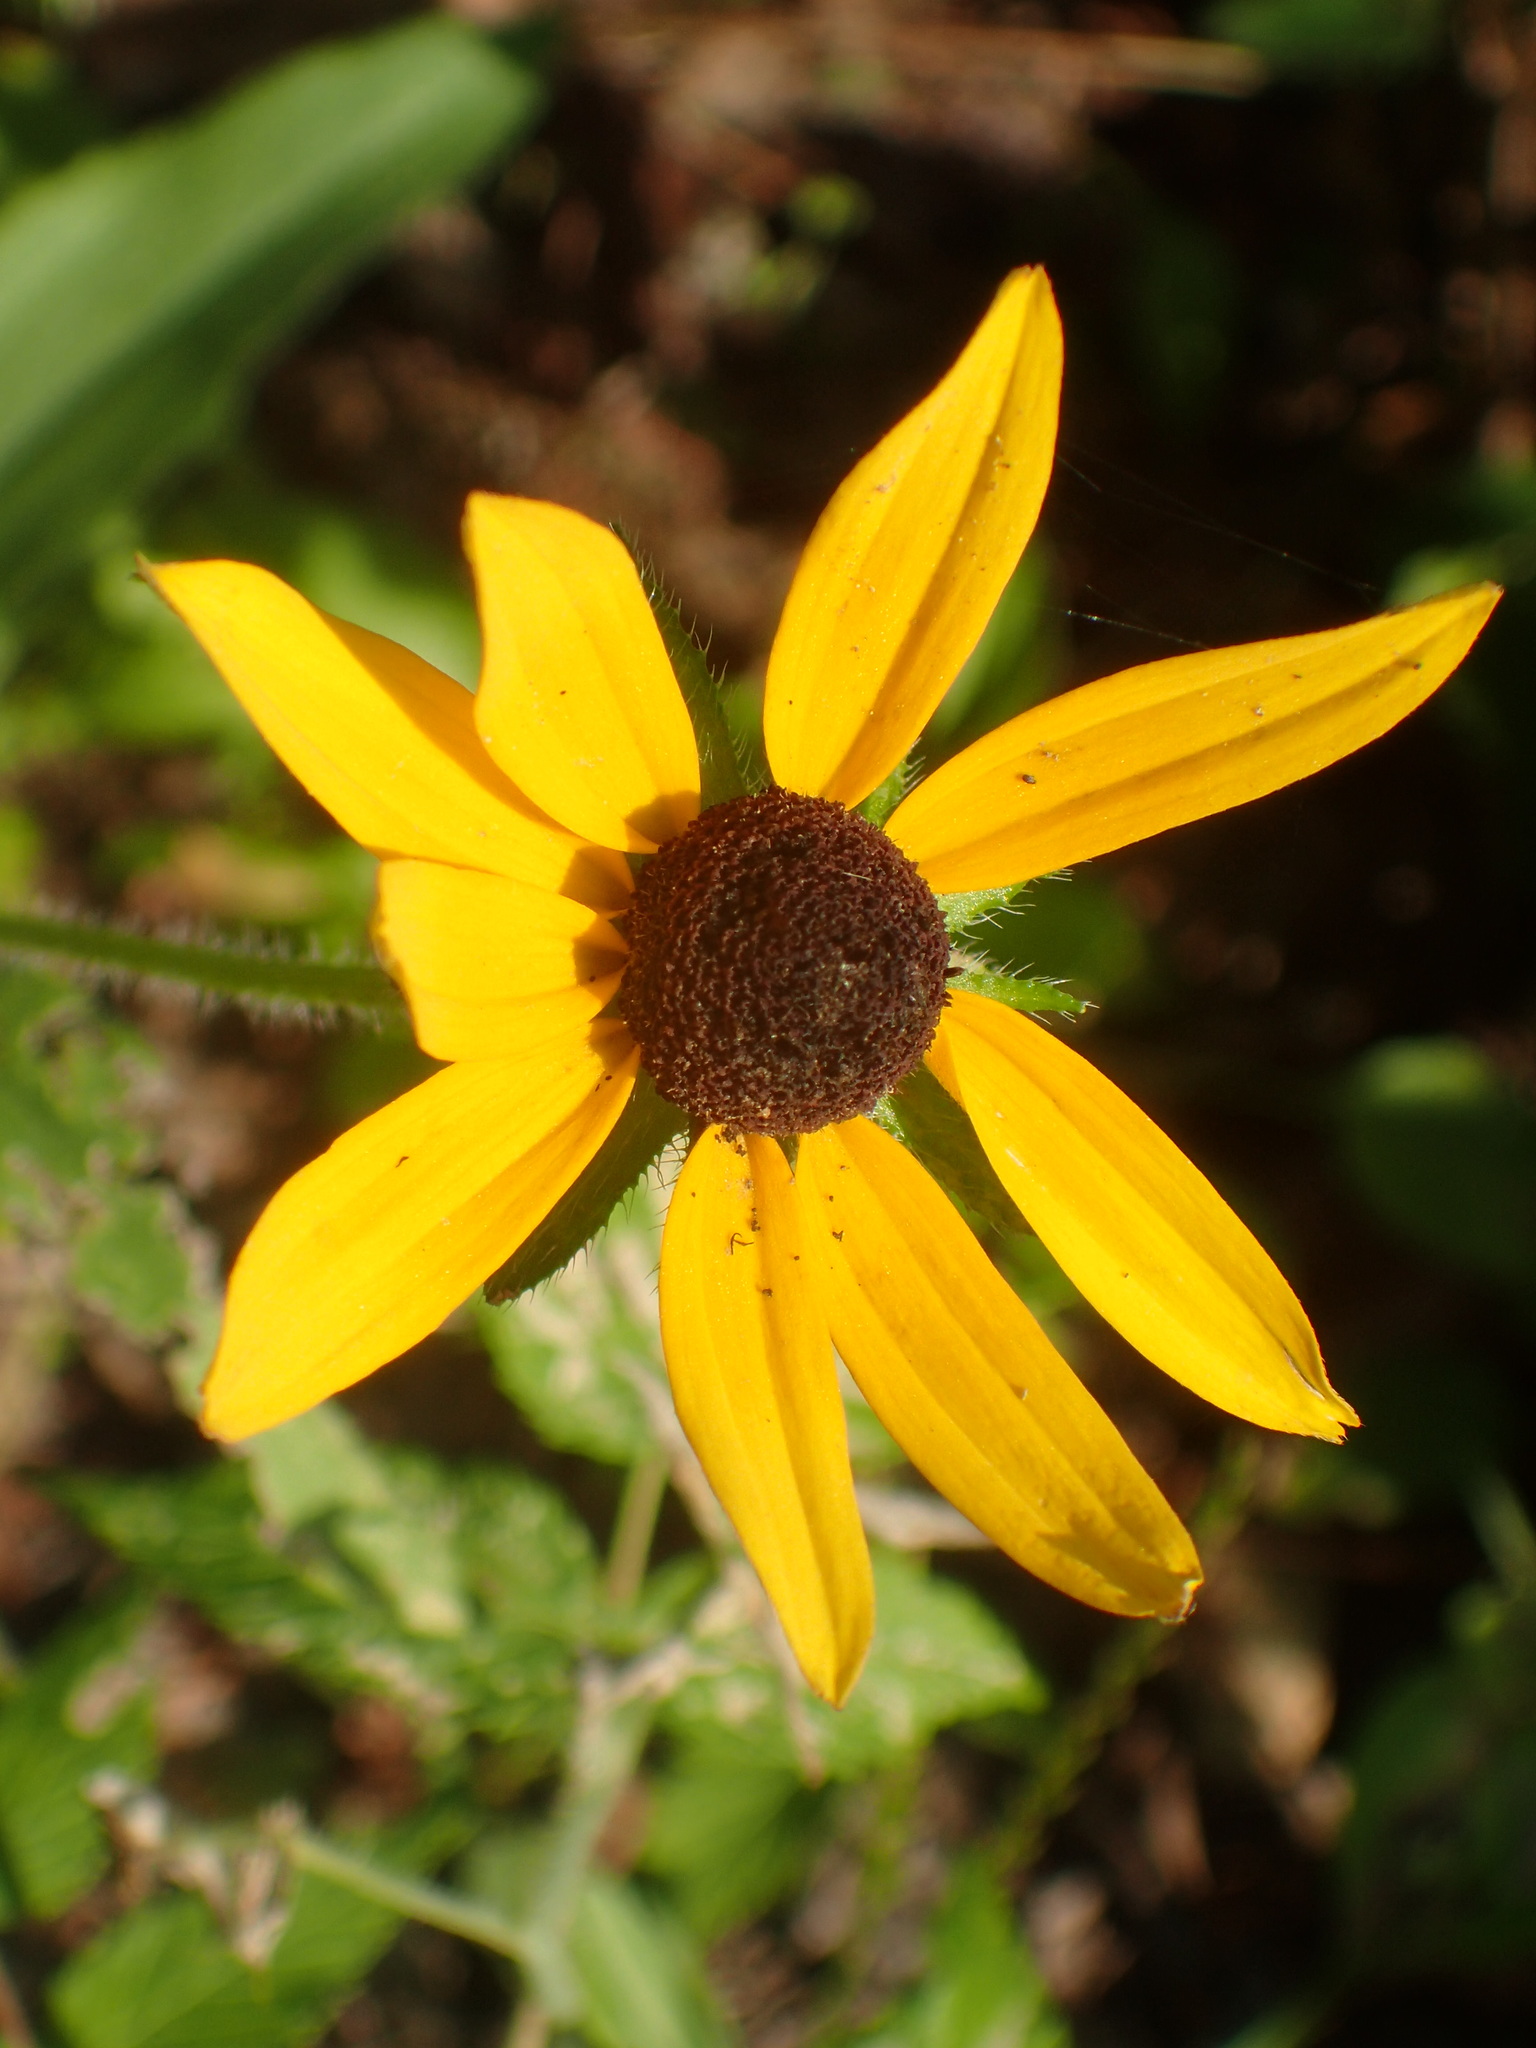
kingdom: Plantae
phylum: Tracheophyta
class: Magnoliopsida
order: Asterales
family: Asteraceae
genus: Rudbeckia
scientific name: Rudbeckia hirta
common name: Black-eyed-susan
